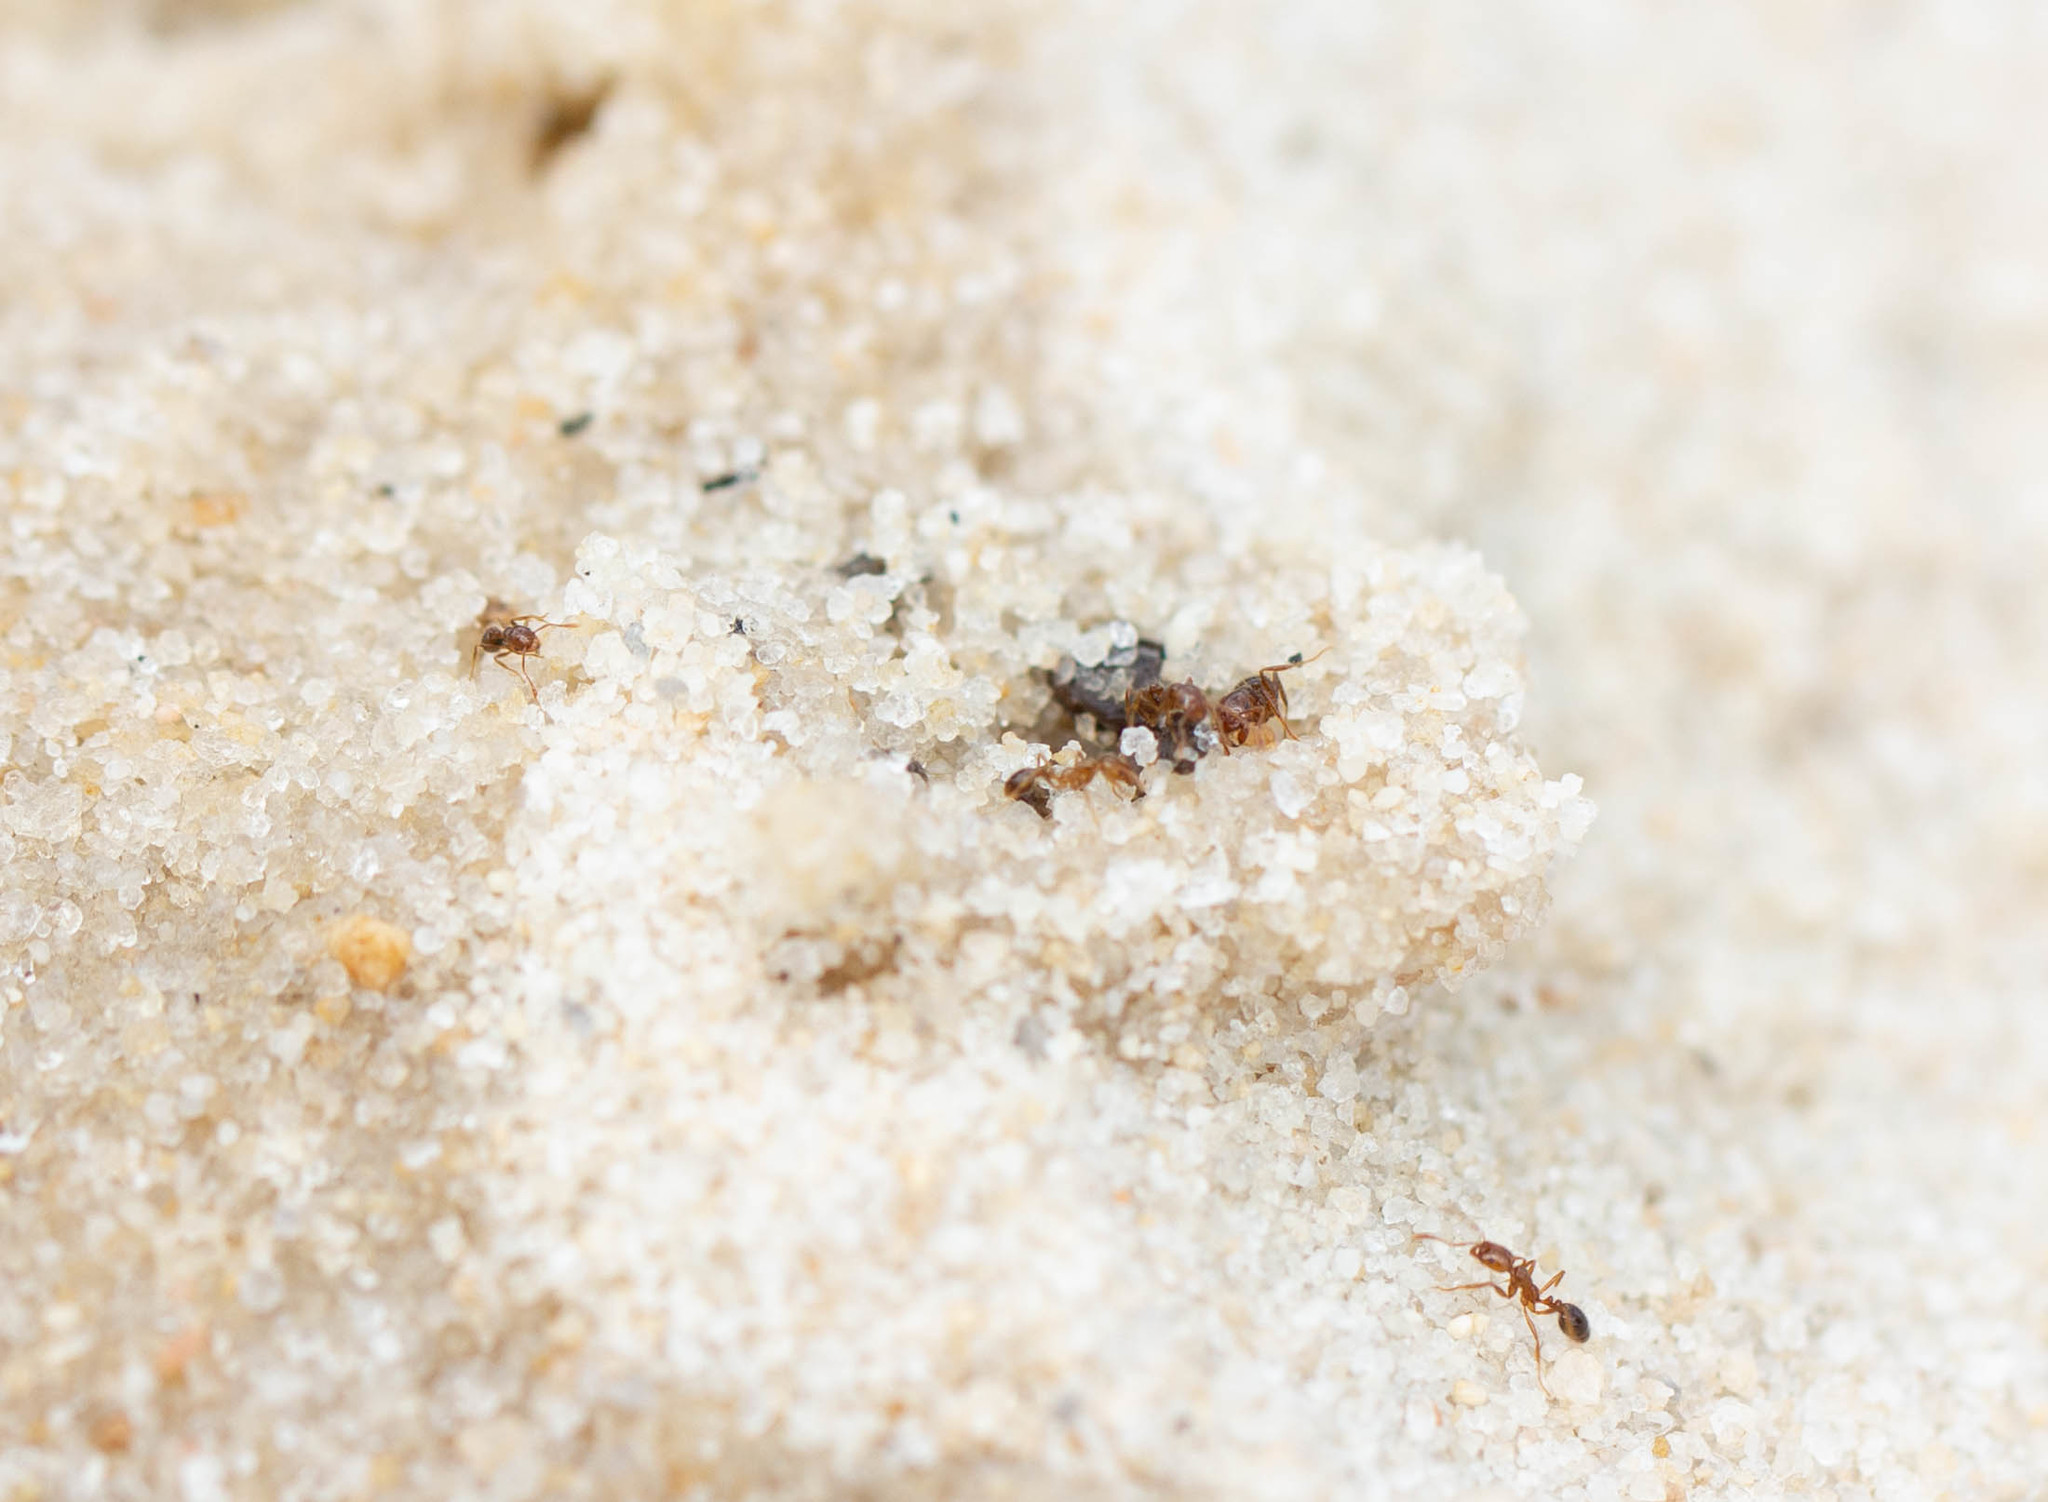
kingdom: Animalia
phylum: Arthropoda
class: Insecta
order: Hymenoptera
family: Formicidae
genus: Solenopsis
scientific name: Solenopsis invicta
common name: Red imported fire ant
